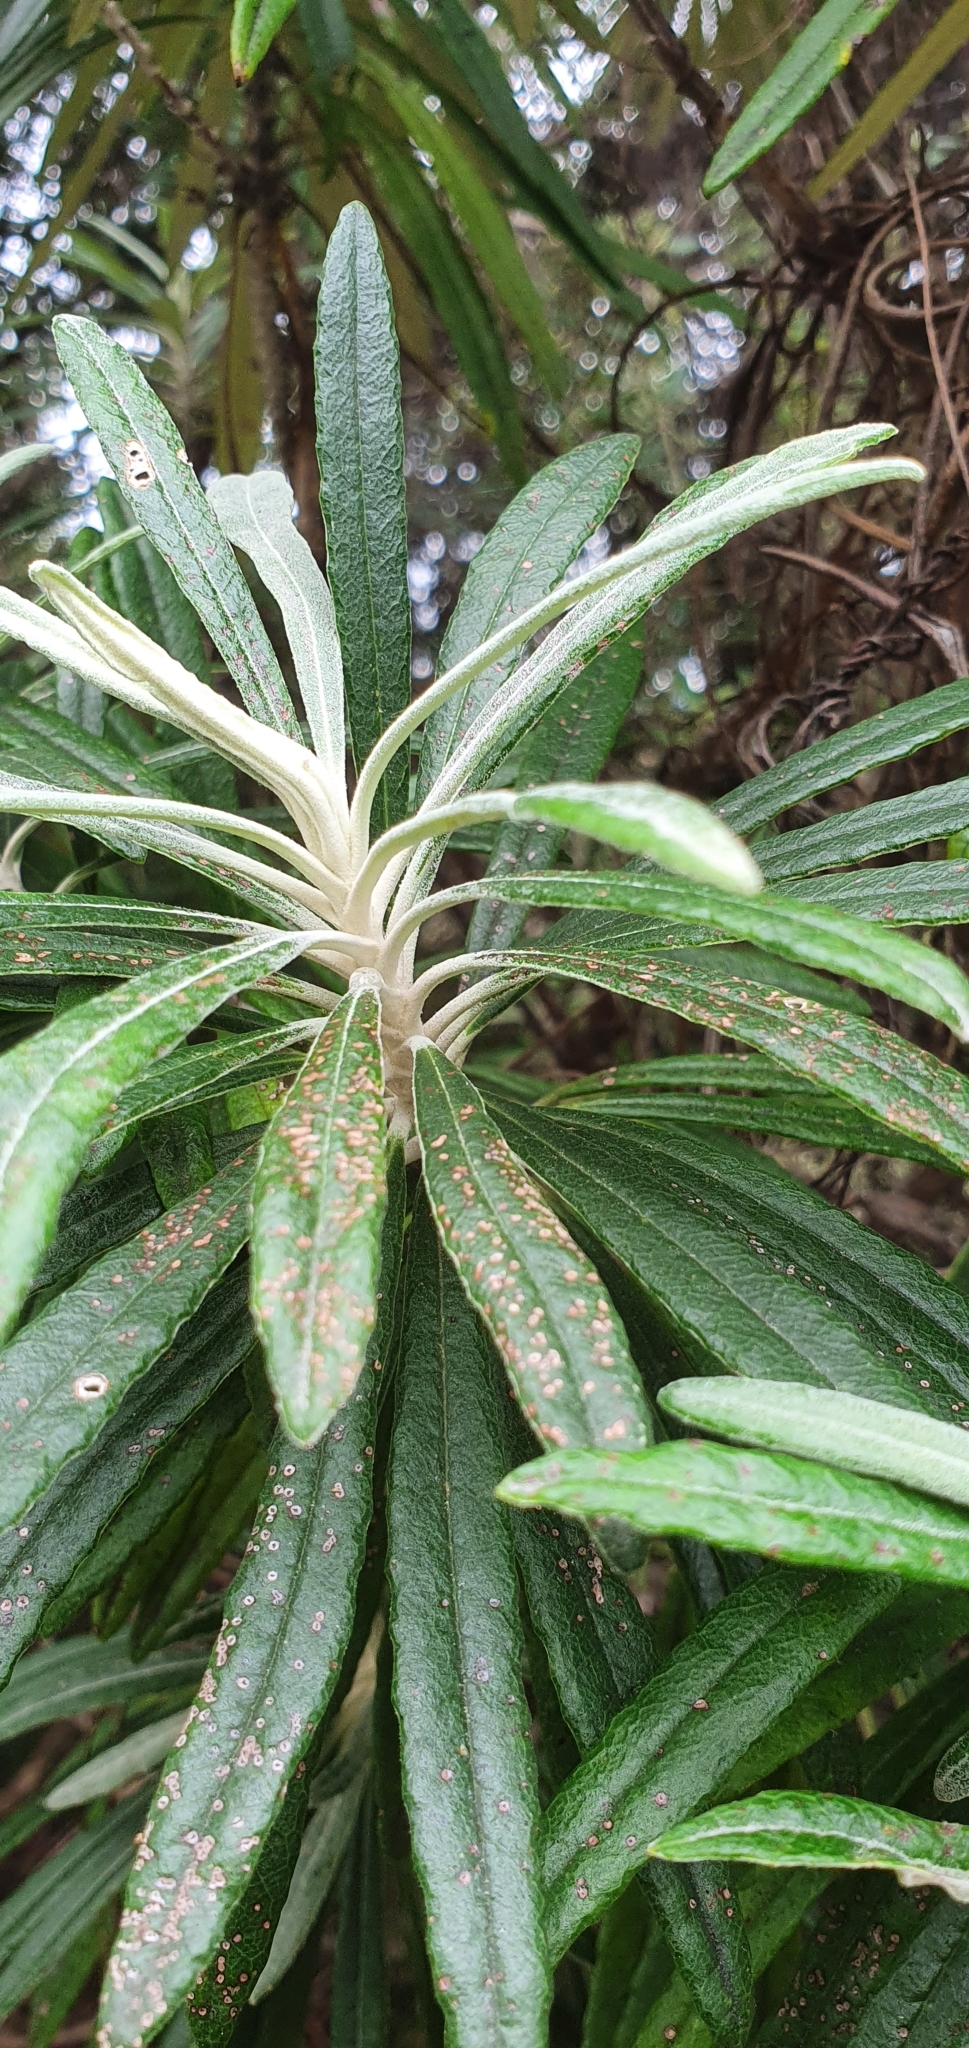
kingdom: Plantae
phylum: Tracheophyta
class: Magnoliopsida
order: Asterales
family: Asteraceae
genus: Bedfordia
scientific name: Bedfordia salicina
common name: Blanketleaf
